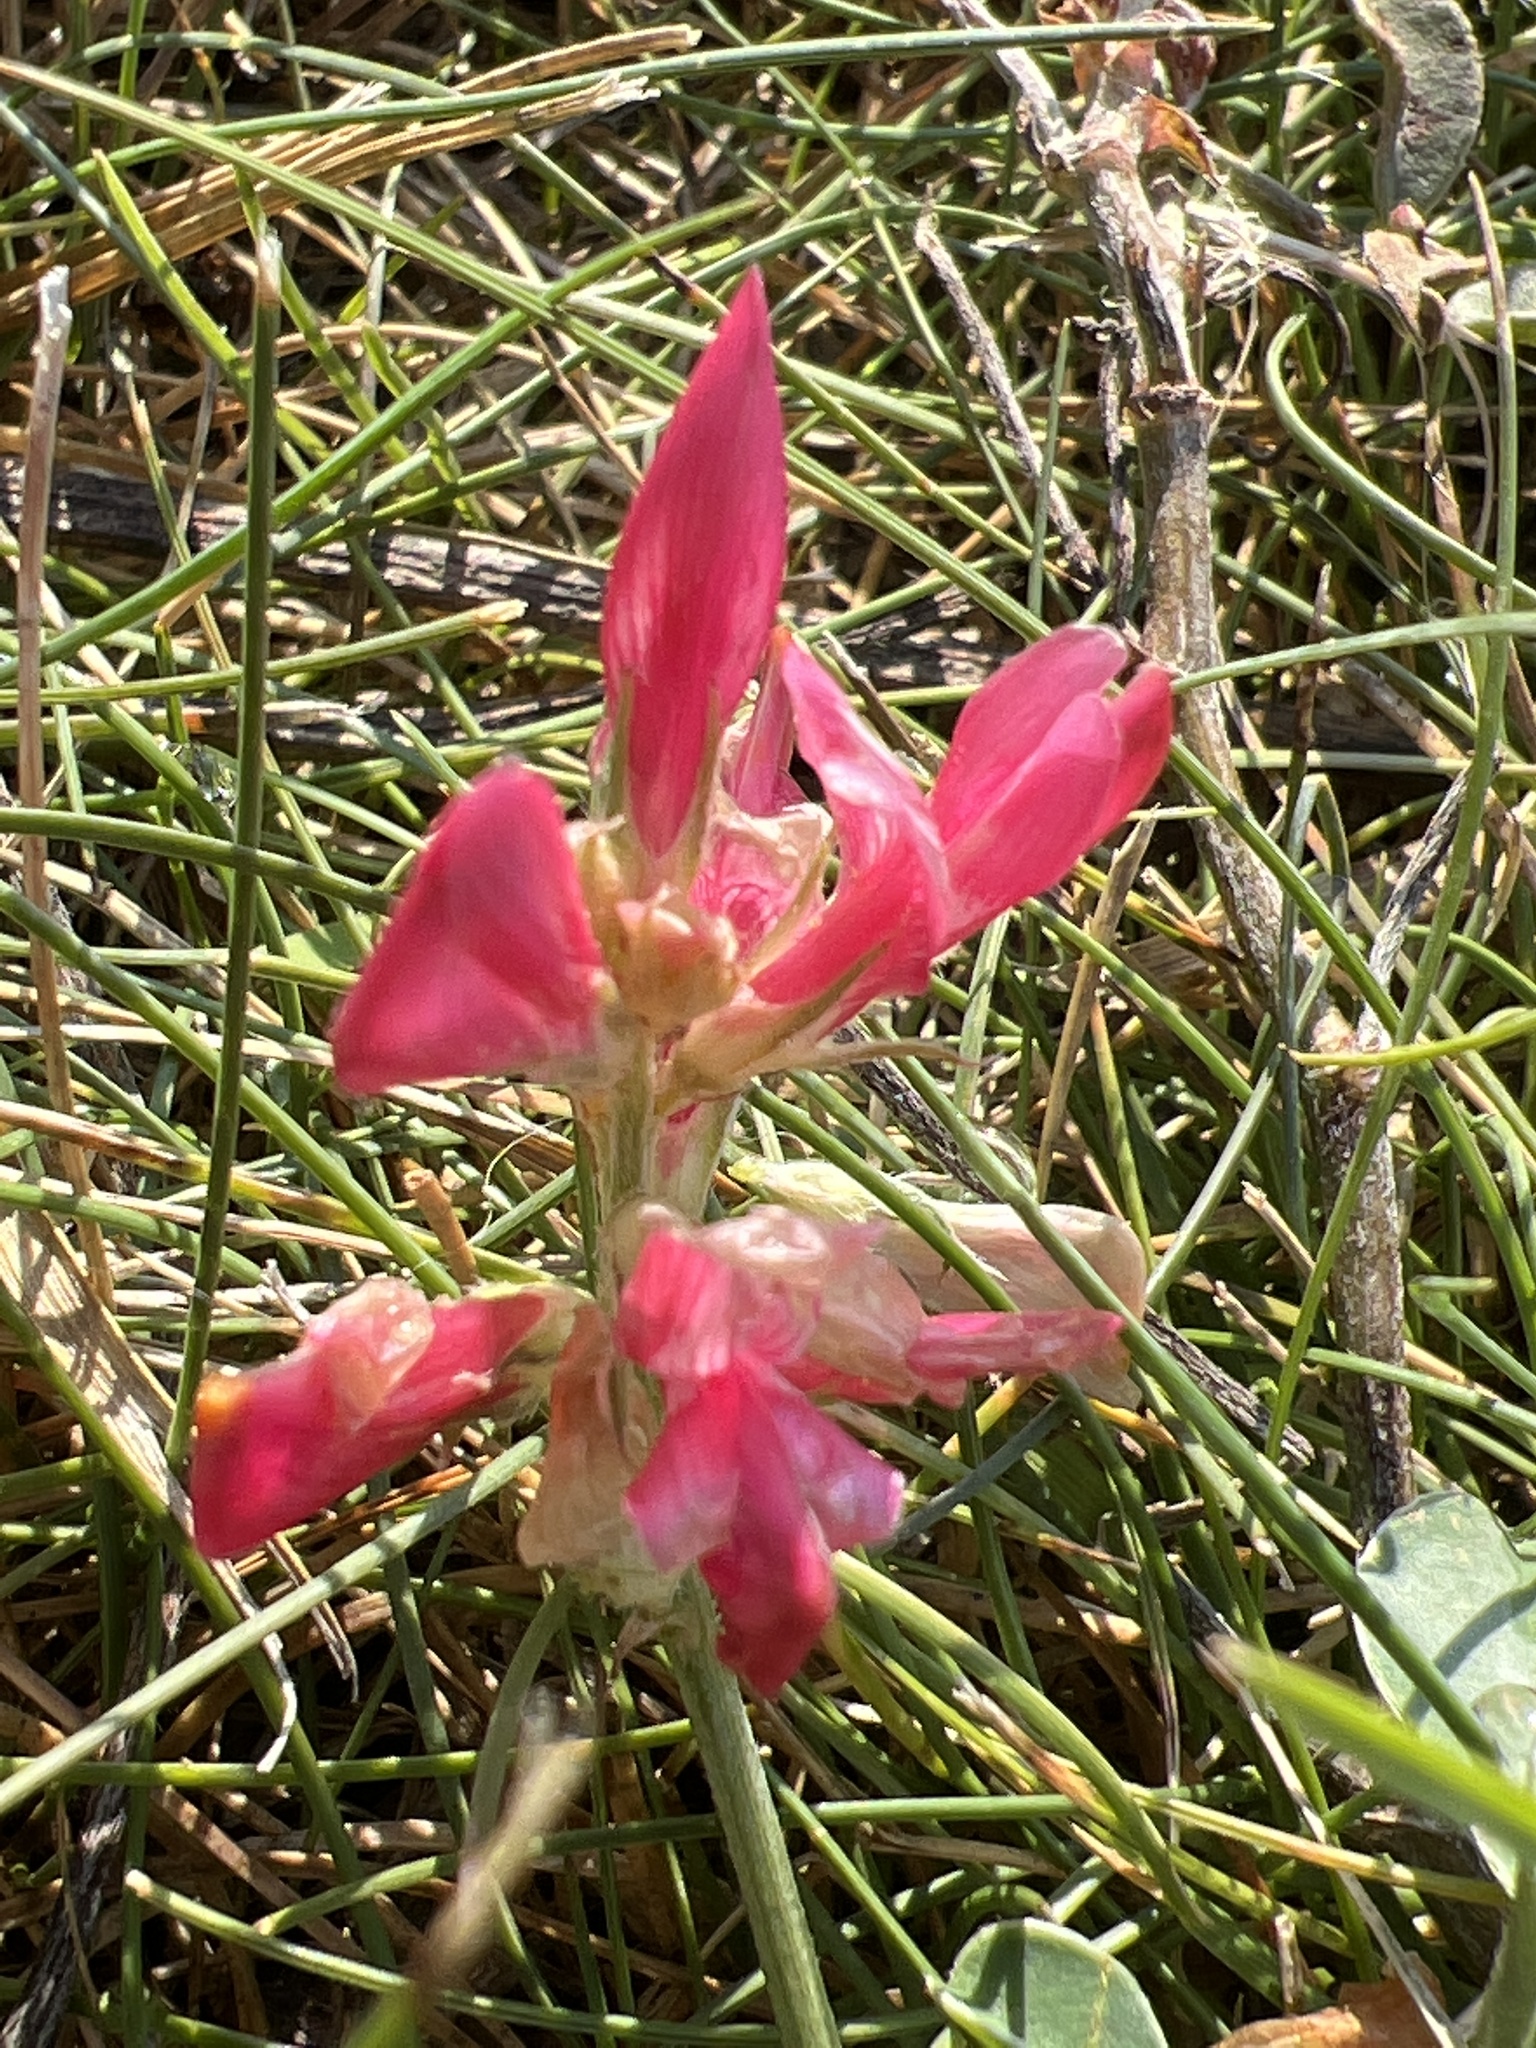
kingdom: Plantae
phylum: Tracheophyta
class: Magnoliopsida
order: Fabales
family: Fabaceae
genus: Sulla
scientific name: Sulla coronaria
